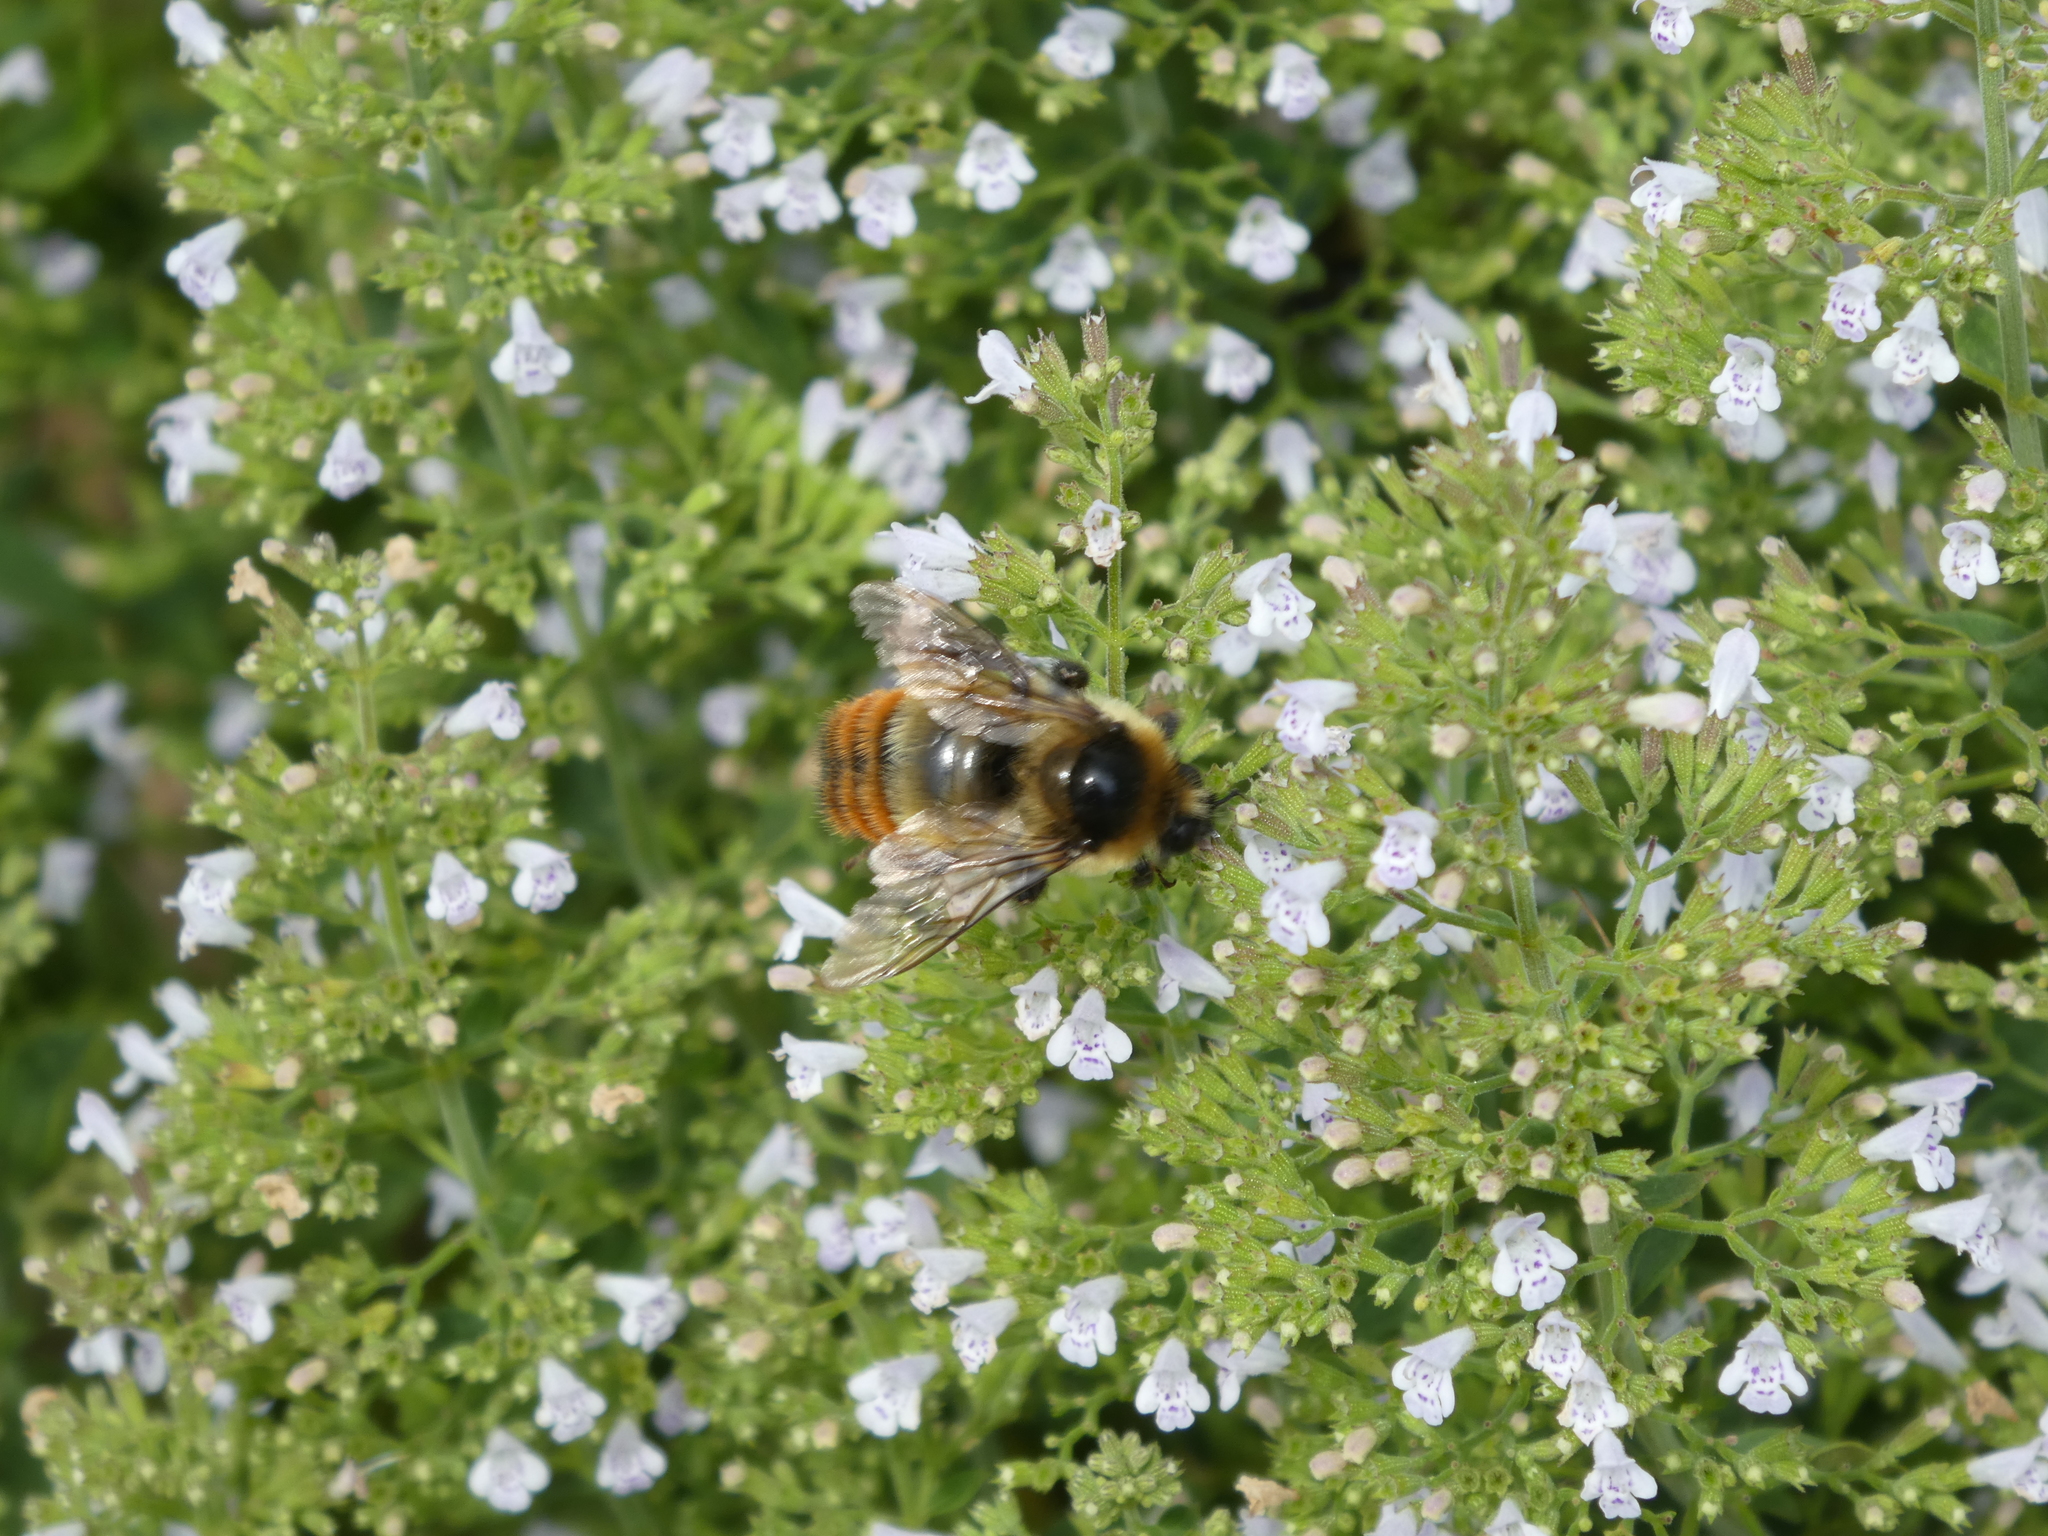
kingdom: Animalia
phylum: Arthropoda
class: Insecta
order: Hymenoptera
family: Apidae
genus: Bombus
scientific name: Bombus rufocinctus
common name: Red-belted bumble bee
